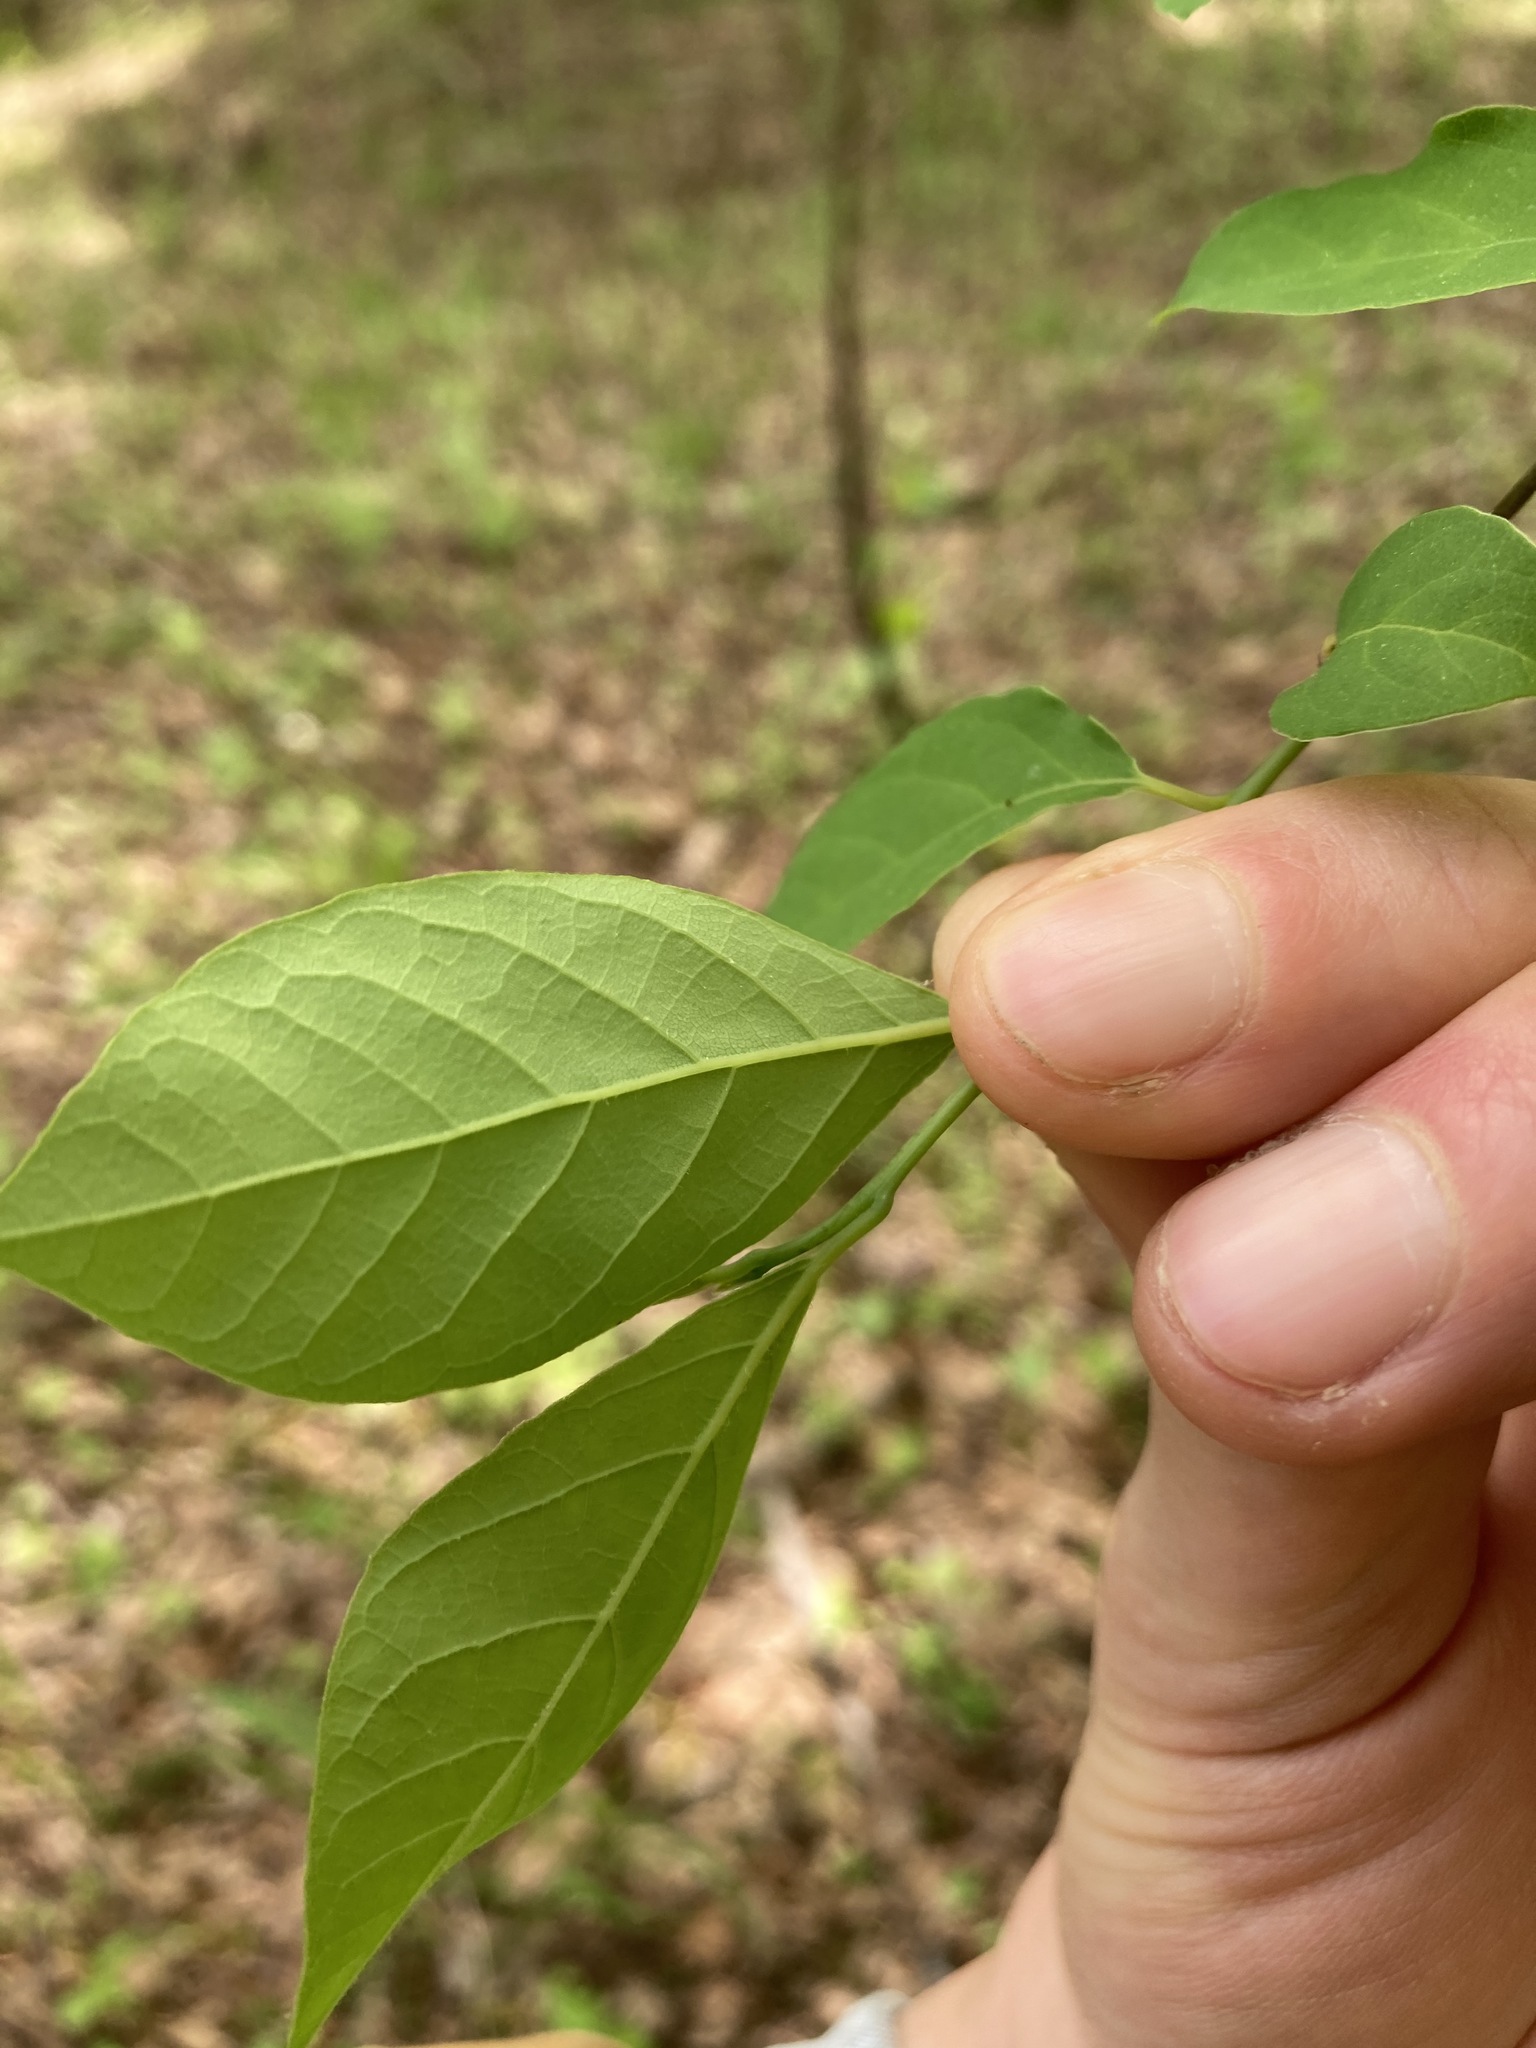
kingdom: Plantae
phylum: Tracheophyta
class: Magnoliopsida
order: Laurales
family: Lauraceae
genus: Lindera
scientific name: Lindera benzoin
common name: Spicebush
